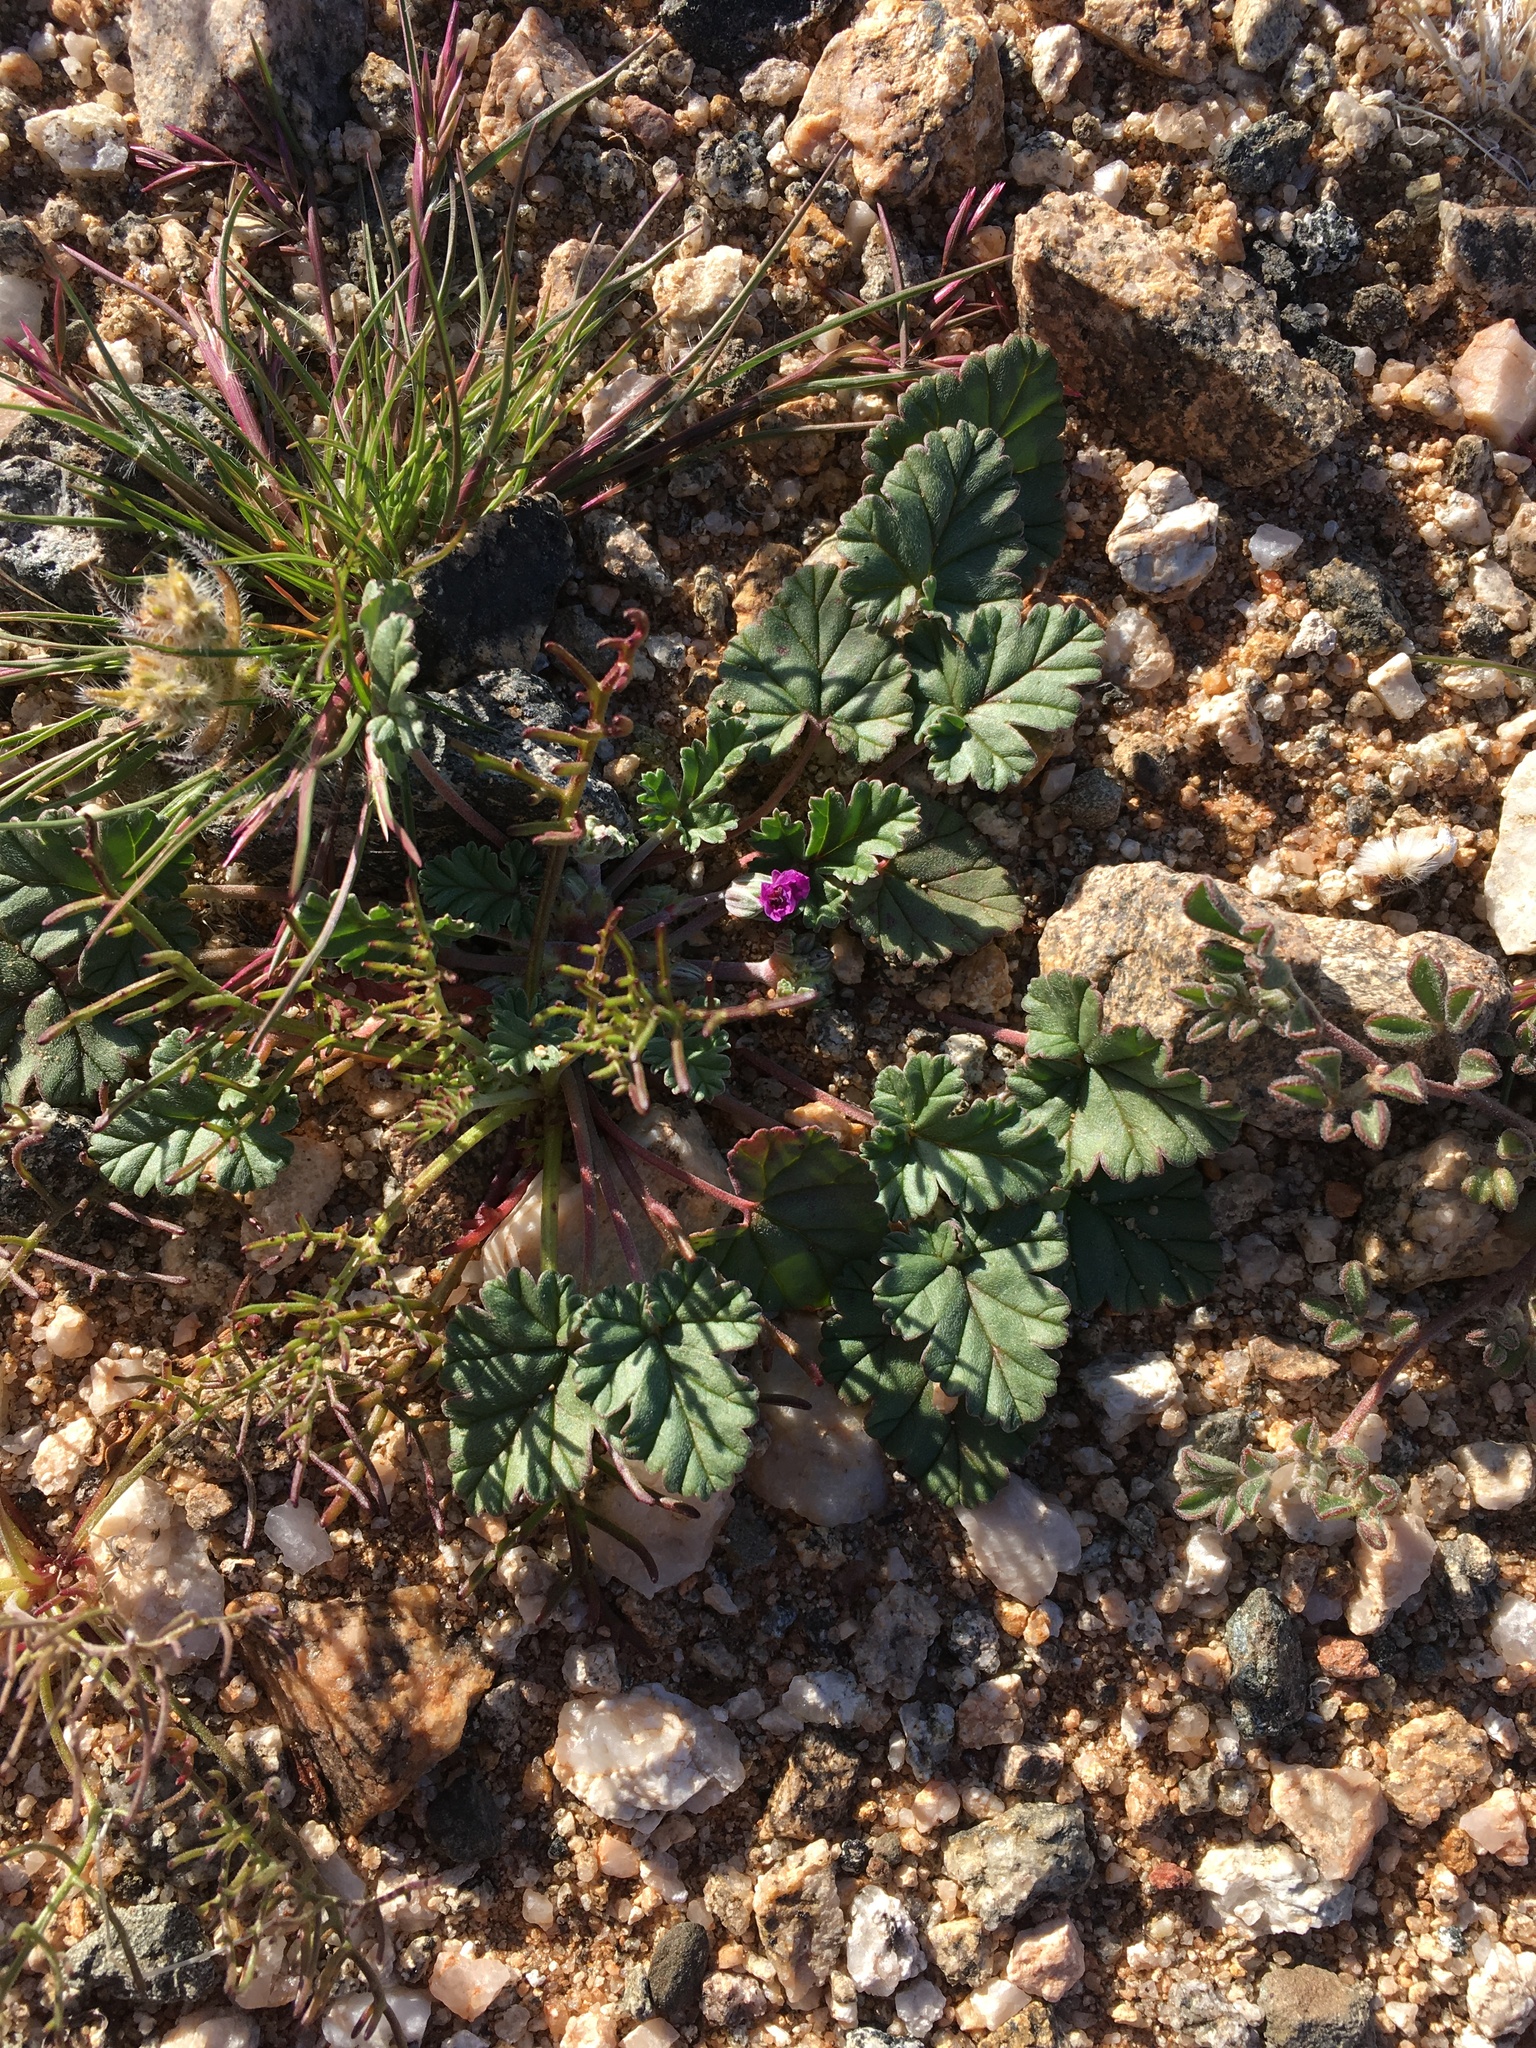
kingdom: Plantae
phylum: Tracheophyta
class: Magnoliopsida
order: Geraniales
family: Geraniaceae
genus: Erodium
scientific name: Erodium texanum
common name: Texas stork's-bill
